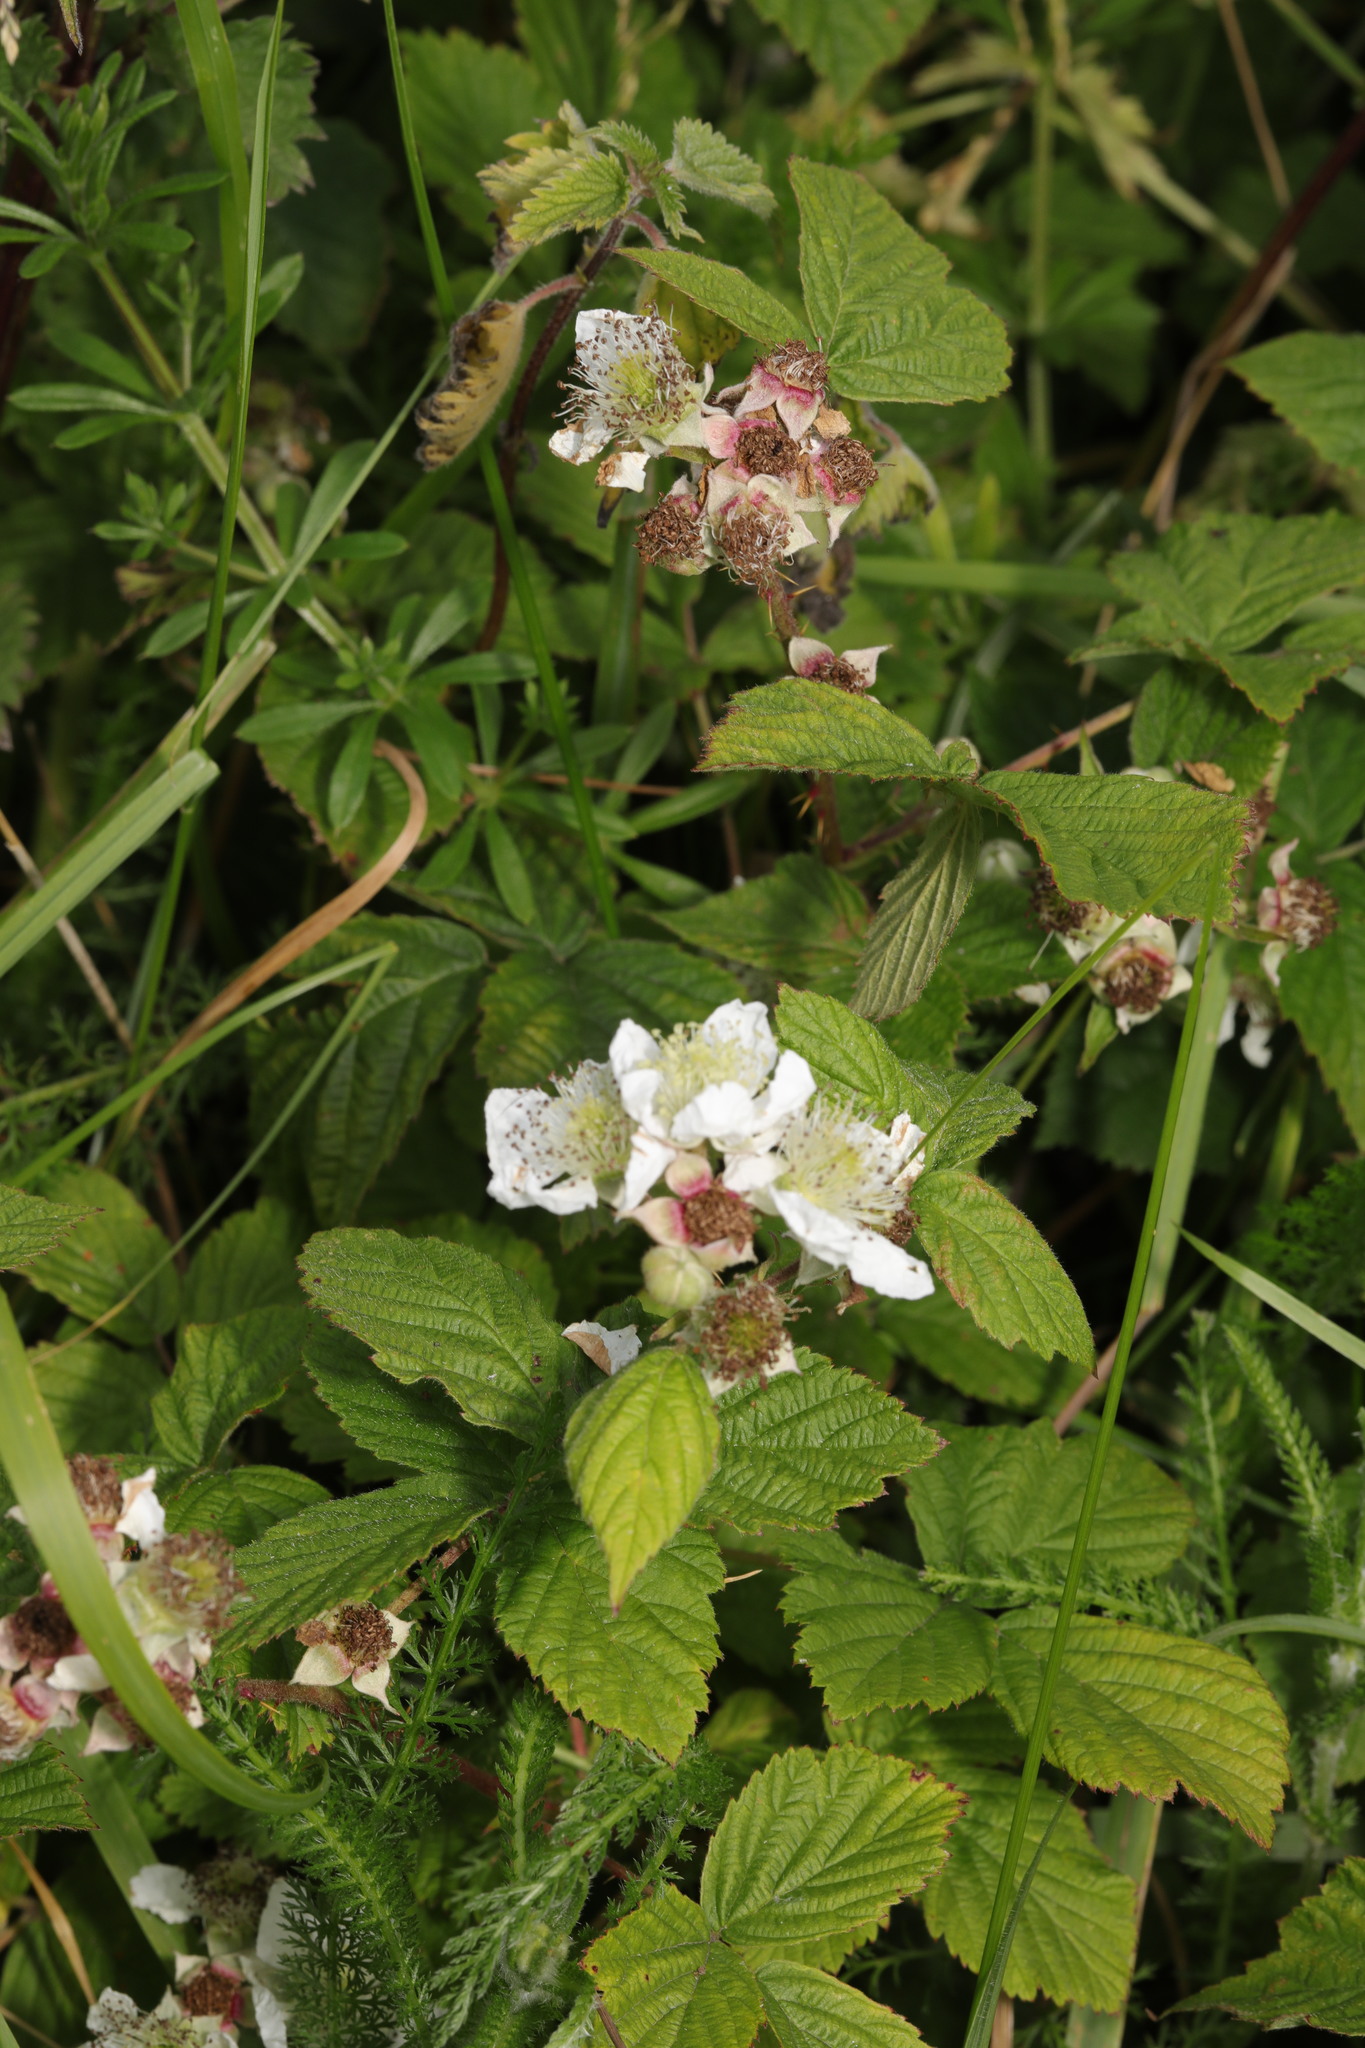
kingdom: Plantae
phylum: Tracheophyta
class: Magnoliopsida
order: Rosales
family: Rosaceae
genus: Rubus
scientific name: Rubus horrefactus
